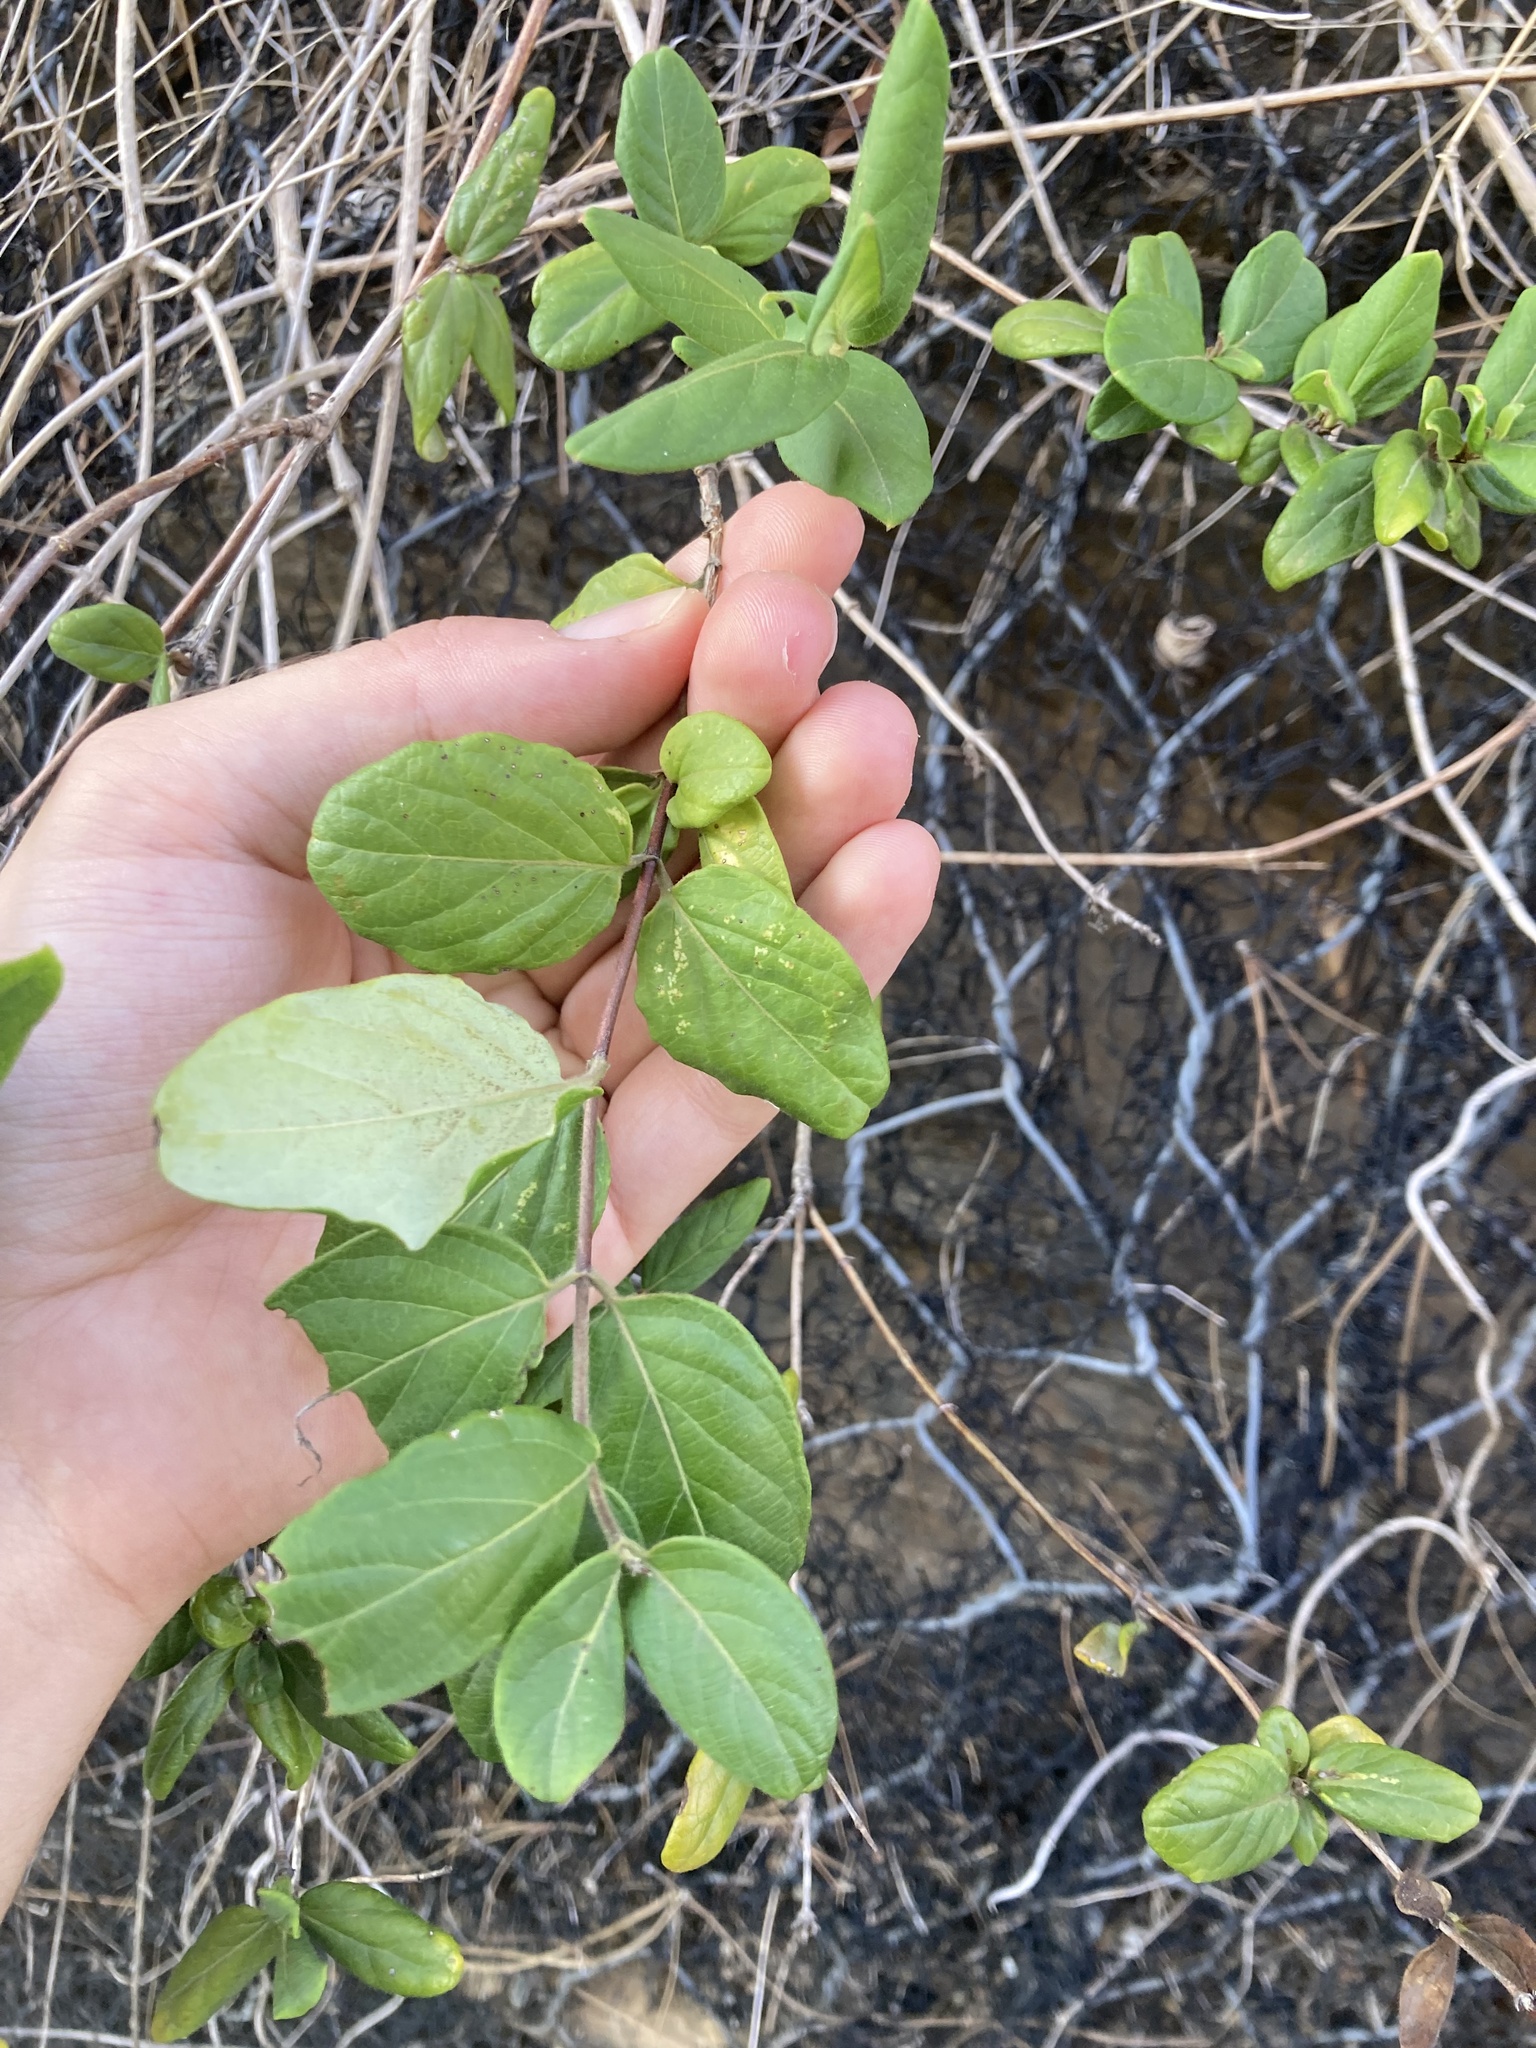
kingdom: Plantae
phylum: Tracheophyta
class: Magnoliopsida
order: Dipsacales
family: Caprifoliaceae
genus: Lonicera
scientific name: Lonicera japonica
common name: Japanese honeysuckle
